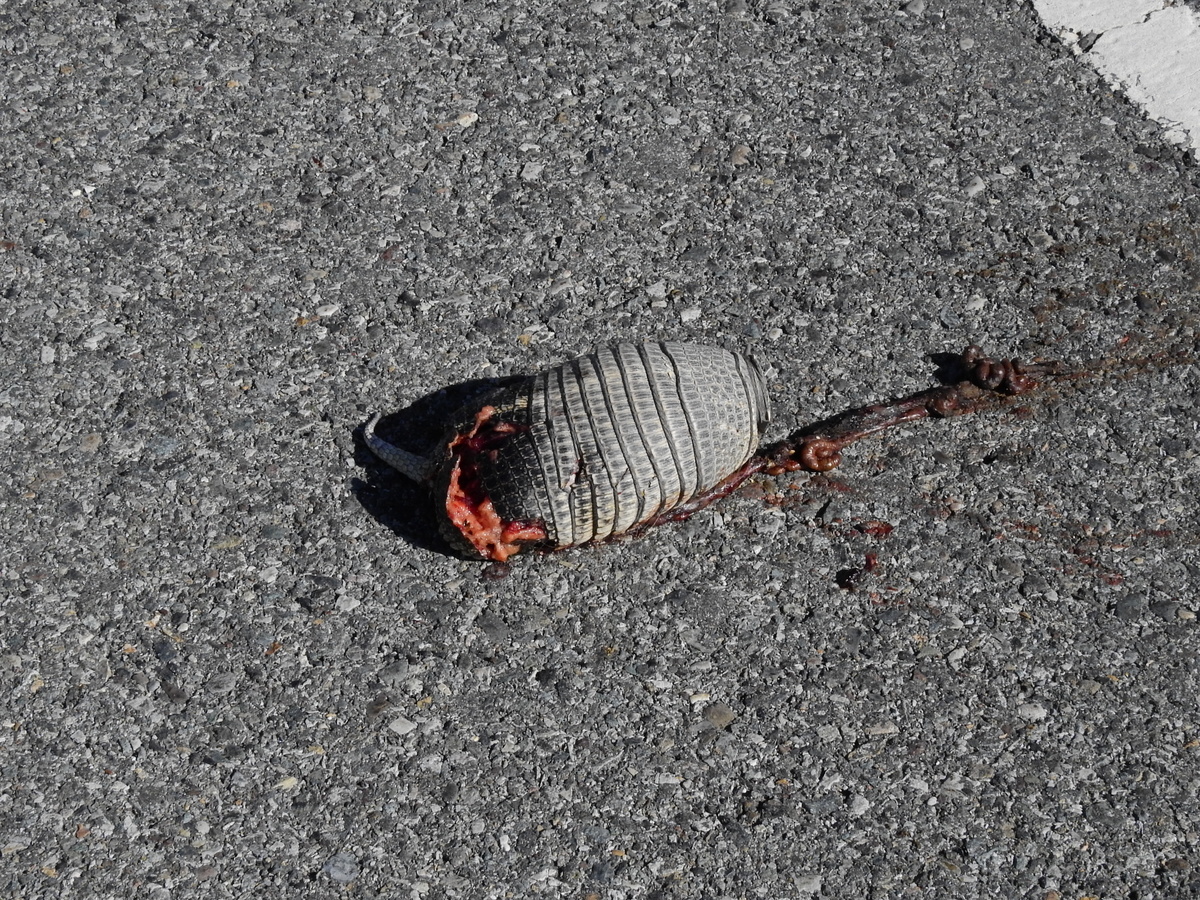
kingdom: Animalia
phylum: Chordata
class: Mammalia
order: Cingulata
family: Dasypodidae
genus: Zaedyus
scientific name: Zaedyus pichiy
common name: Pichi
